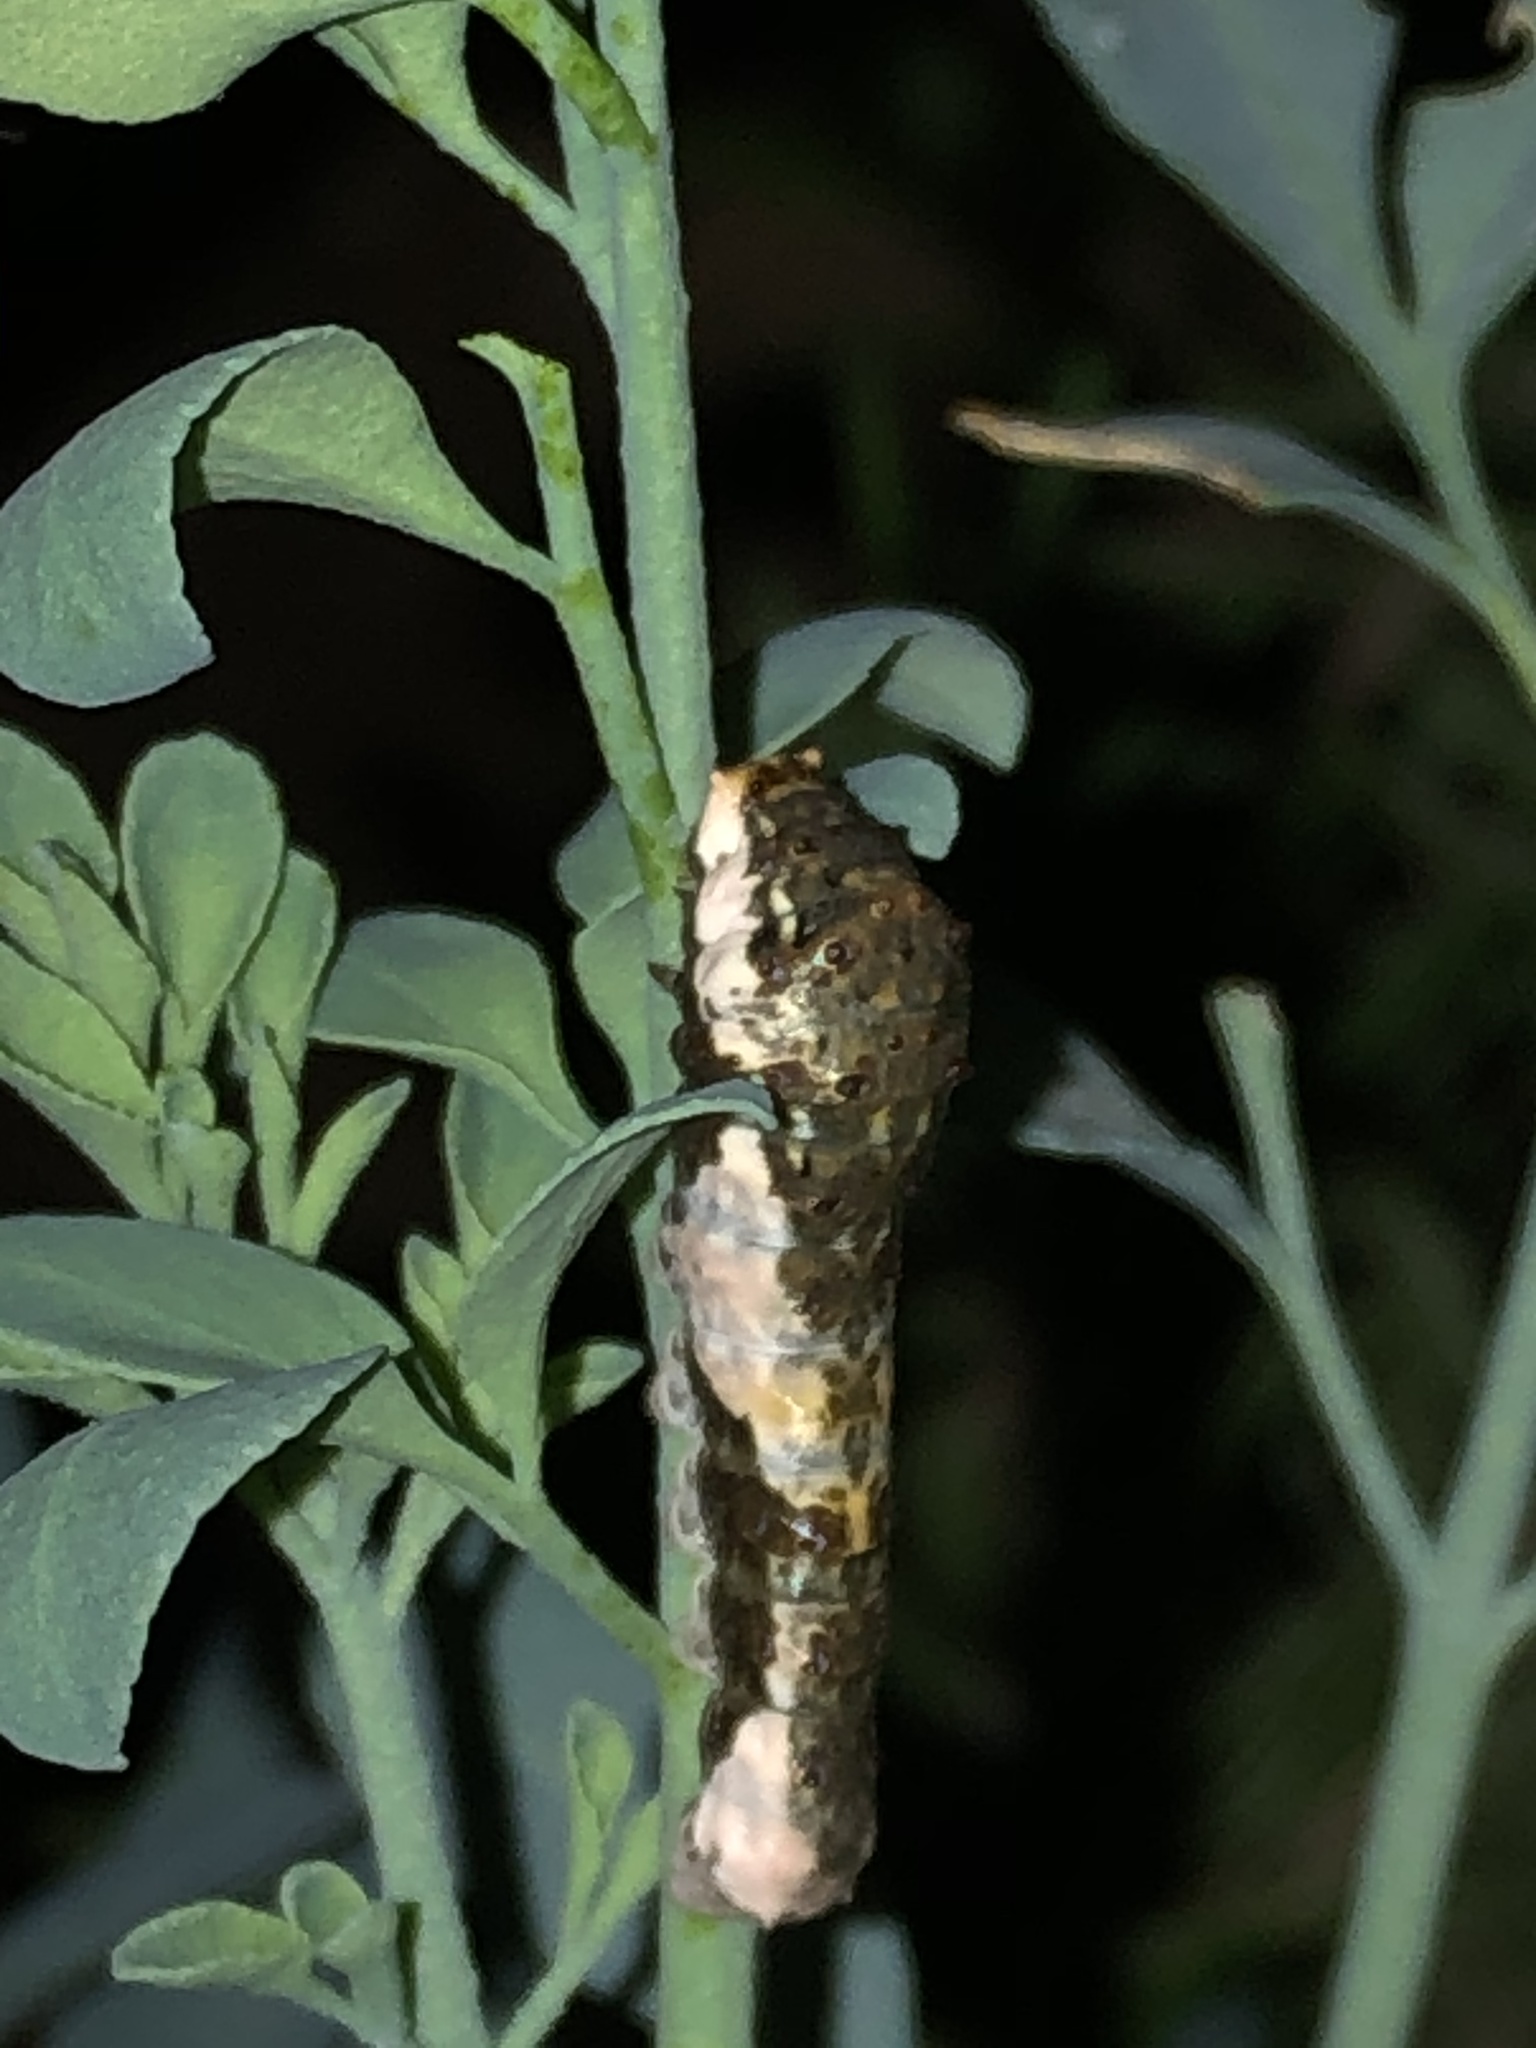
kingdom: Animalia
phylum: Arthropoda
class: Insecta
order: Lepidoptera
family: Papilionidae
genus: Heraclides
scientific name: Heraclides pallas
